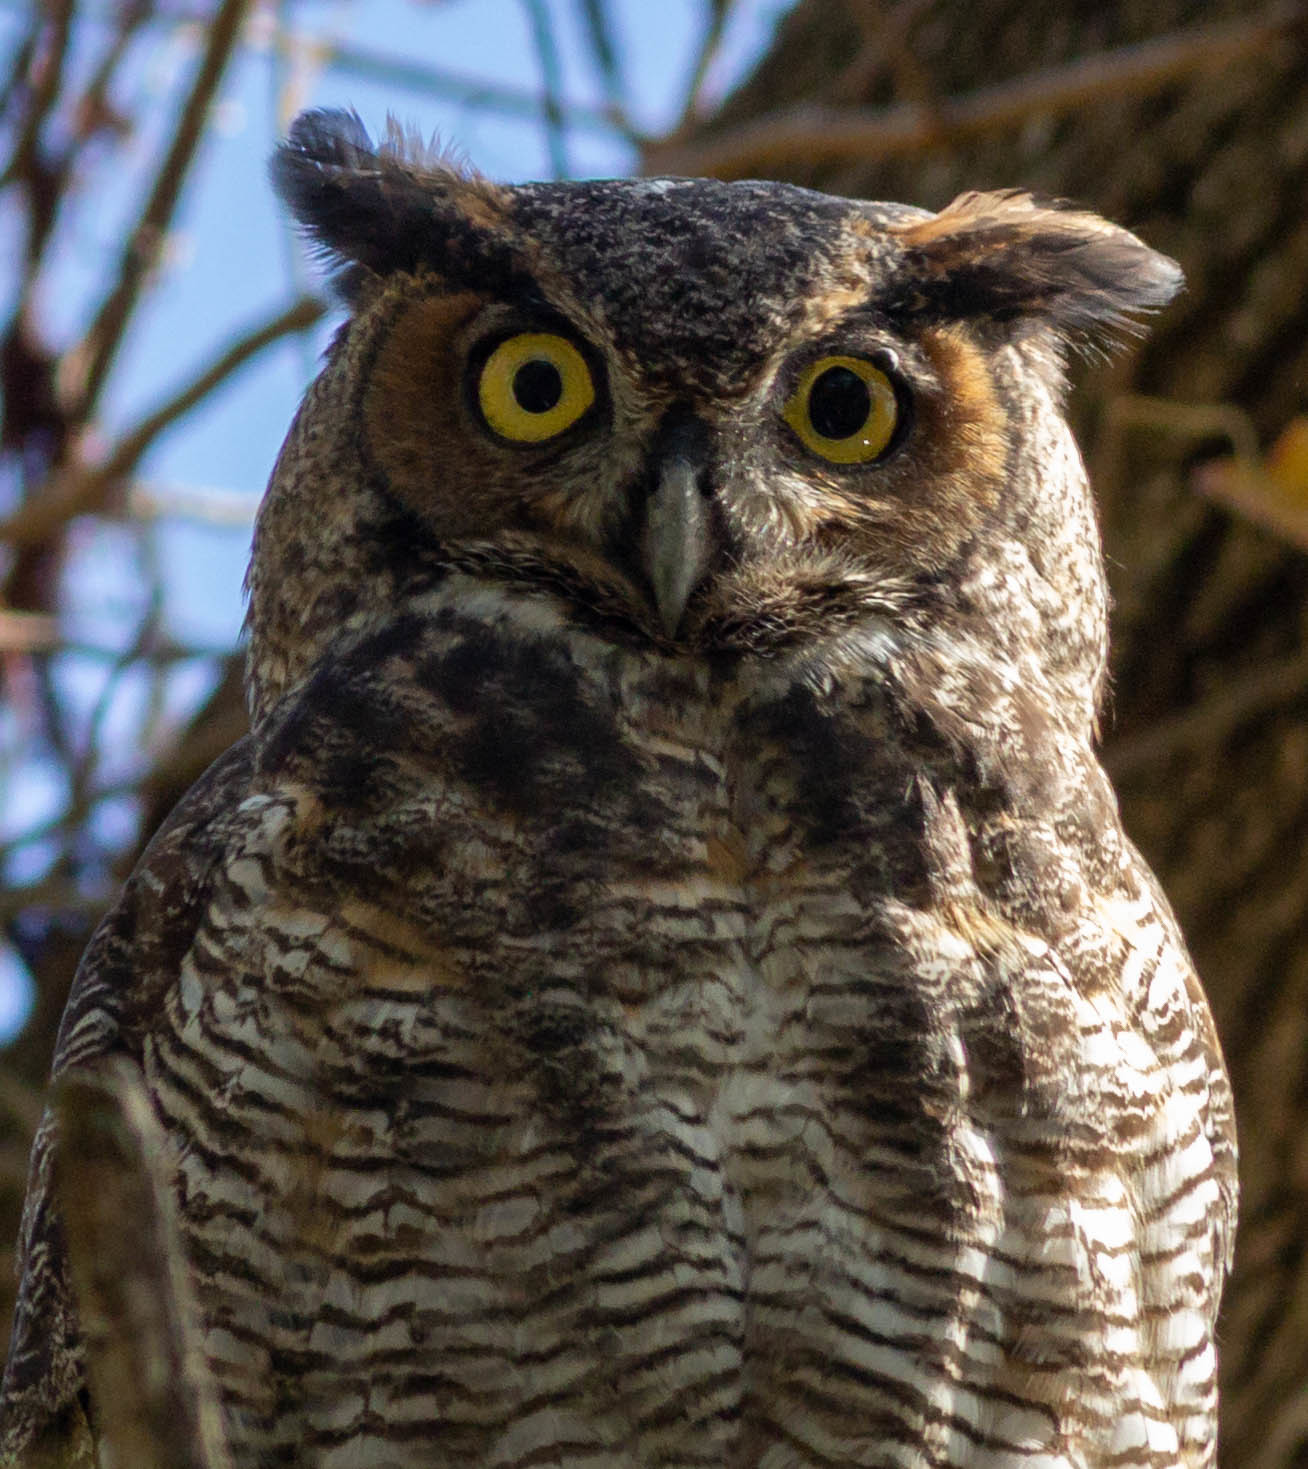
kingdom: Animalia
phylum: Chordata
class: Aves
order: Strigiformes
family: Strigidae
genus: Bubo
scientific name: Bubo virginianus
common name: Great horned owl
